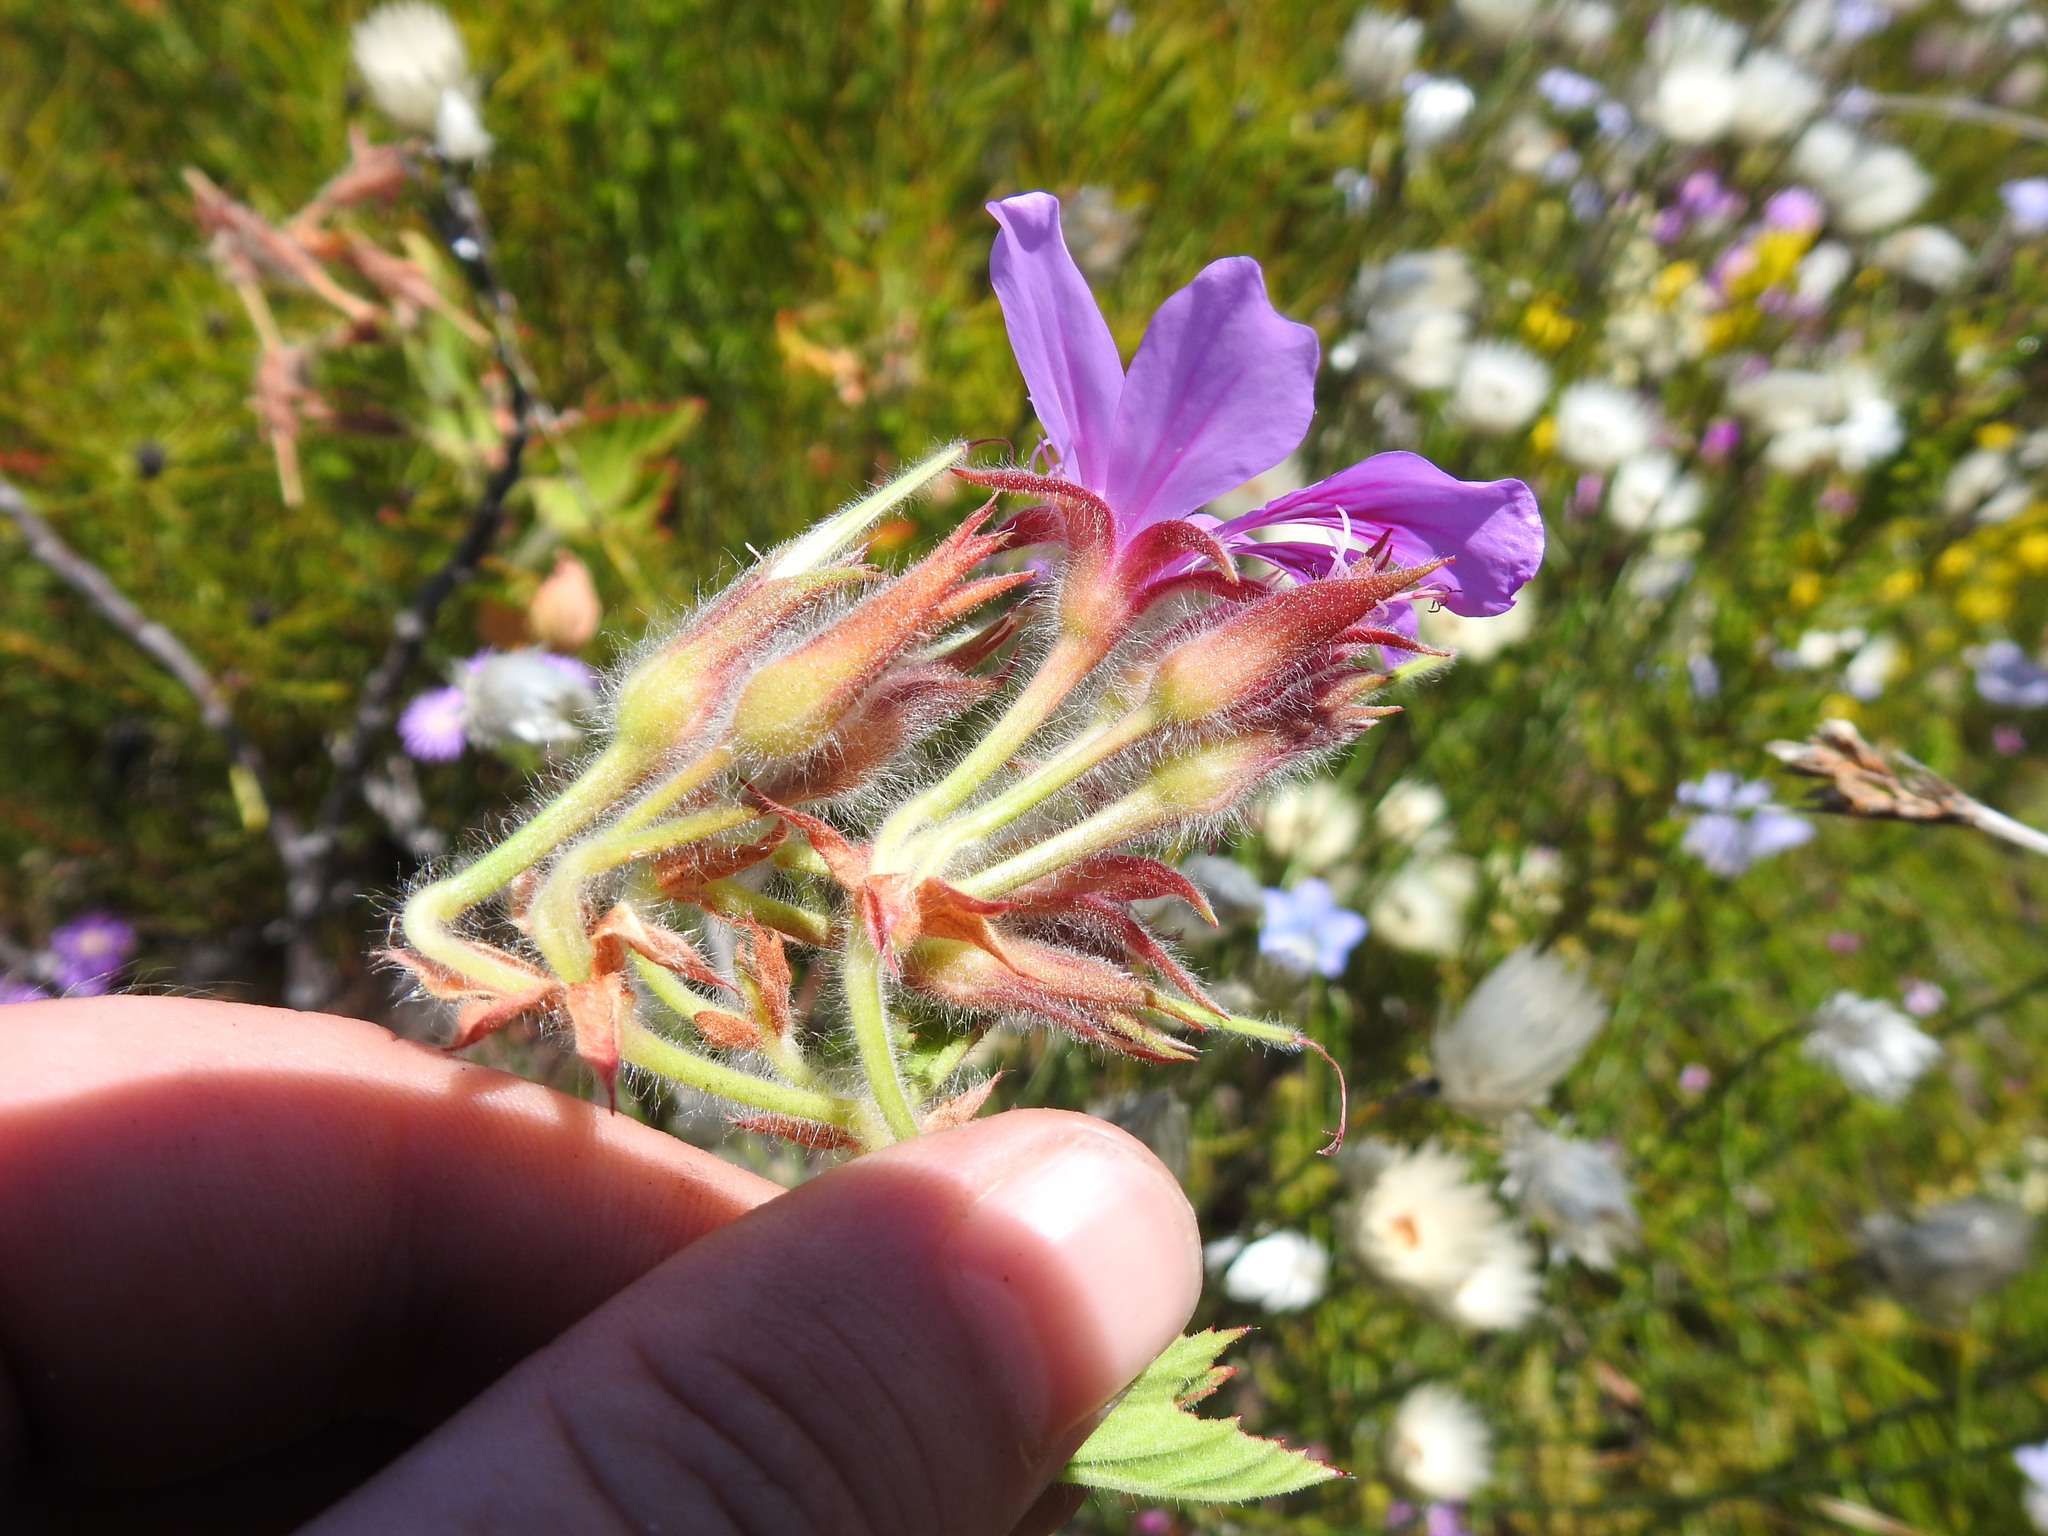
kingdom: Plantae
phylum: Tracheophyta
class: Magnoliopsida
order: Geraniales
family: Geraniaceae
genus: Pelargonium
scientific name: Pelargonium cucullatum
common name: Tree pelargonium
